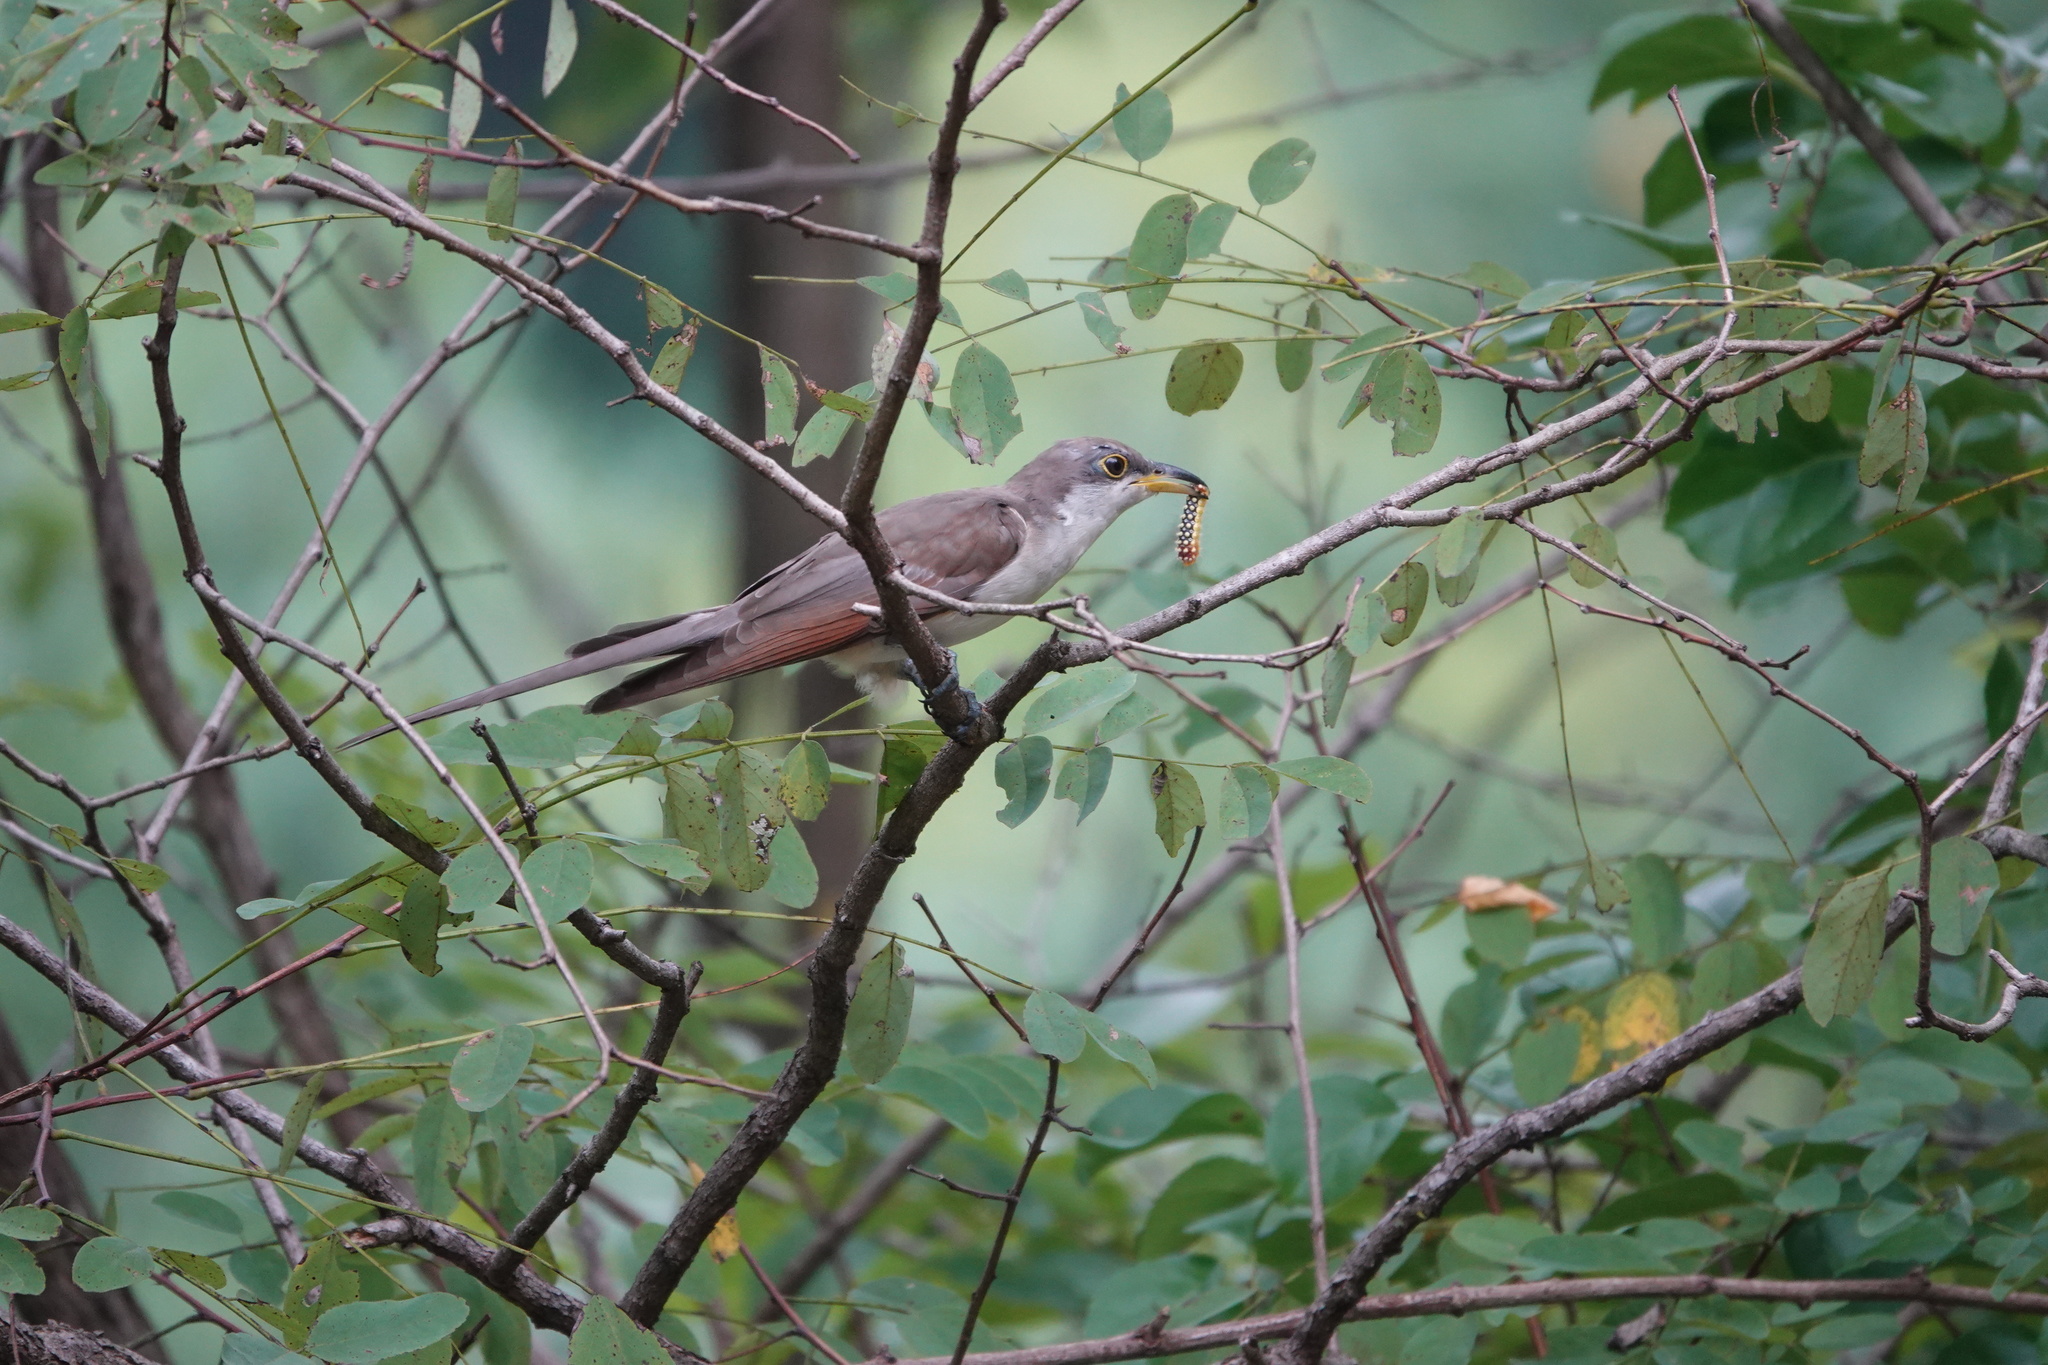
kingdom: Animalia
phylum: Chordata
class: Aves
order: Cuculiformes
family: Cuculidae
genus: Coccyzus
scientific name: Coccyzus americanus
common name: Yellow-billed cuckoo
